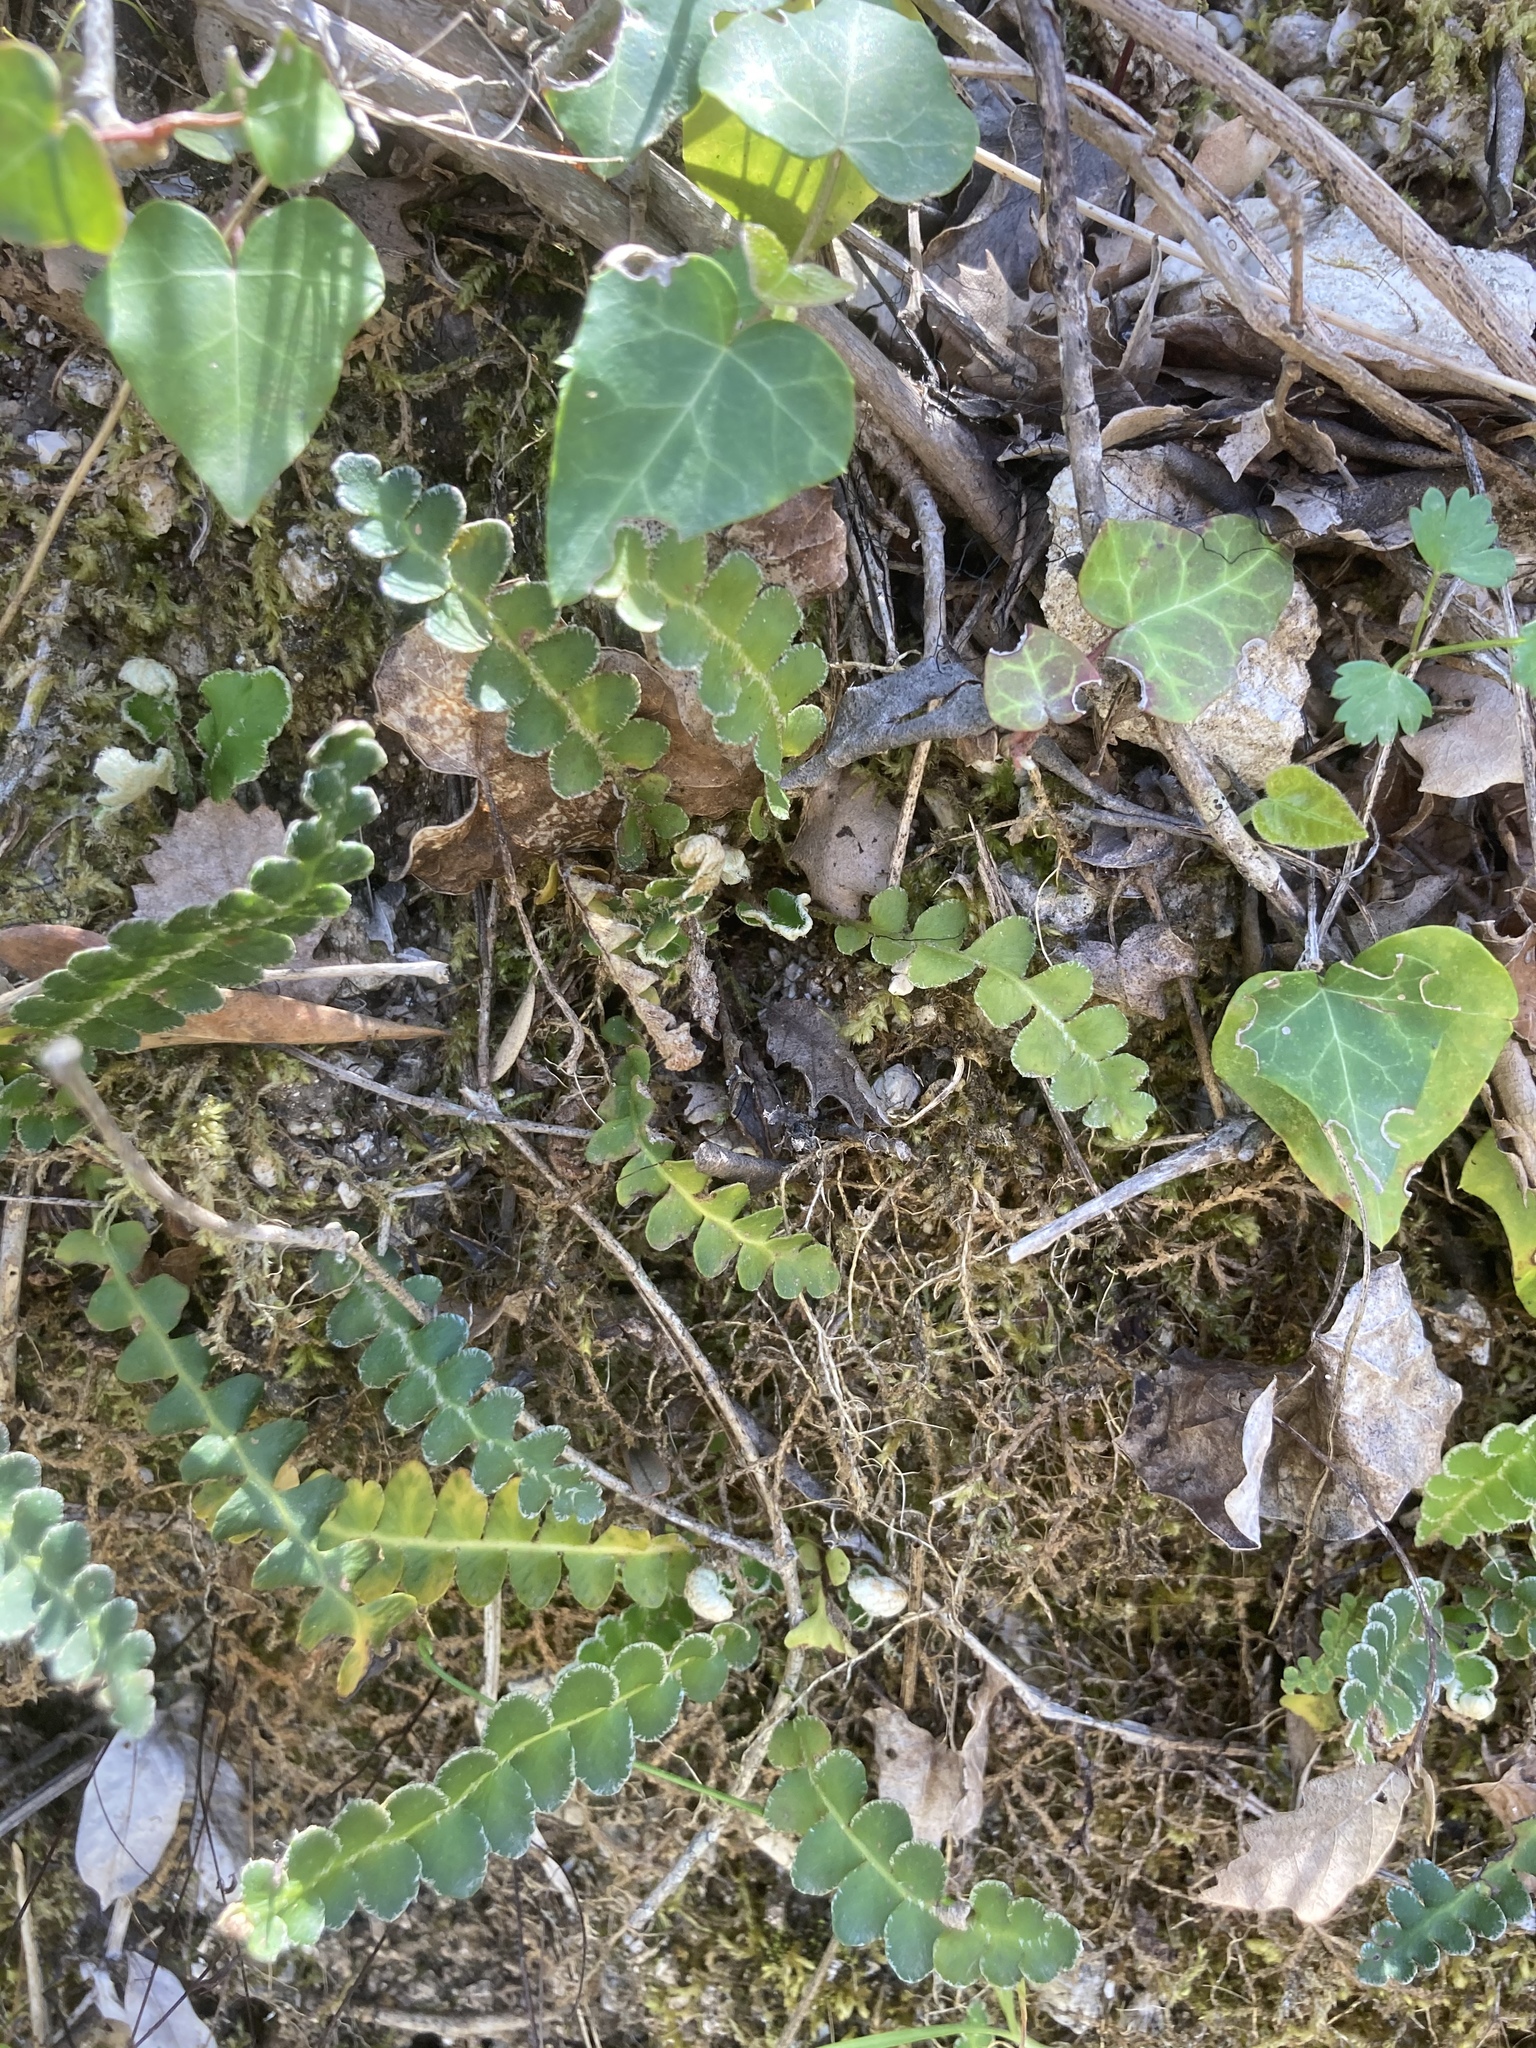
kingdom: Plantae
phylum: Tracheophyta
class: Polypodiopsida
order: Polypodiales
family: Aspleniaceae
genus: Asplenium
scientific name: Asplenium ceterach
